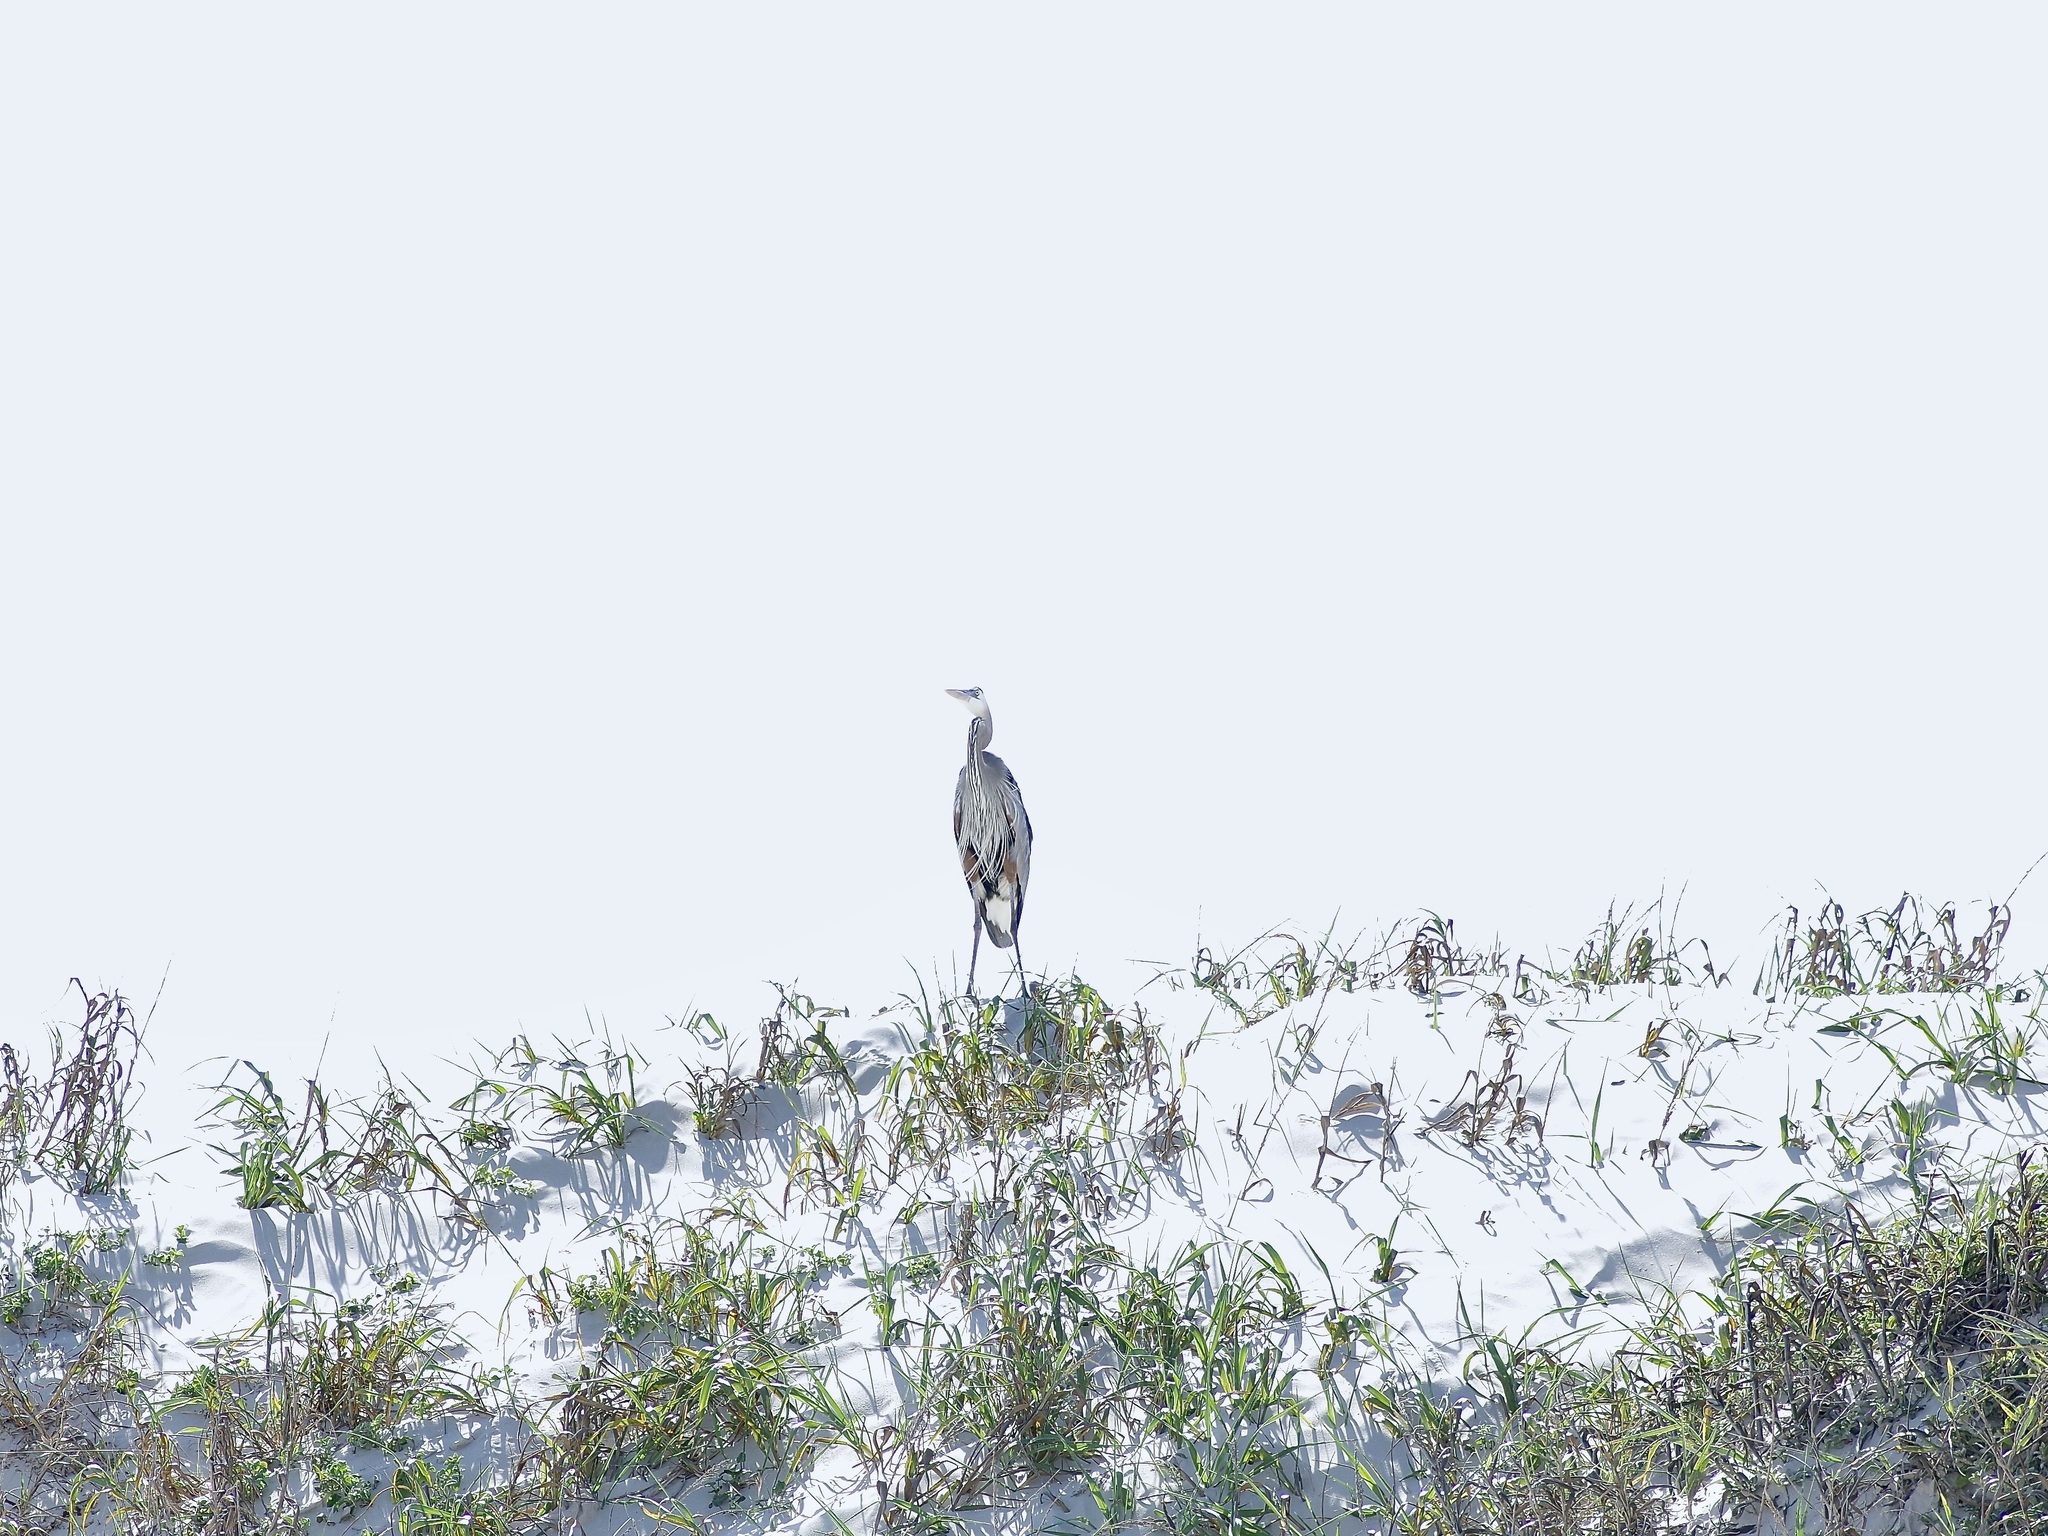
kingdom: Animalia
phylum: Chordata
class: Aves
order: Pelecaniformes
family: Ardeidae
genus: Ardea
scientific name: Ardea herodias
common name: Great blue heron
